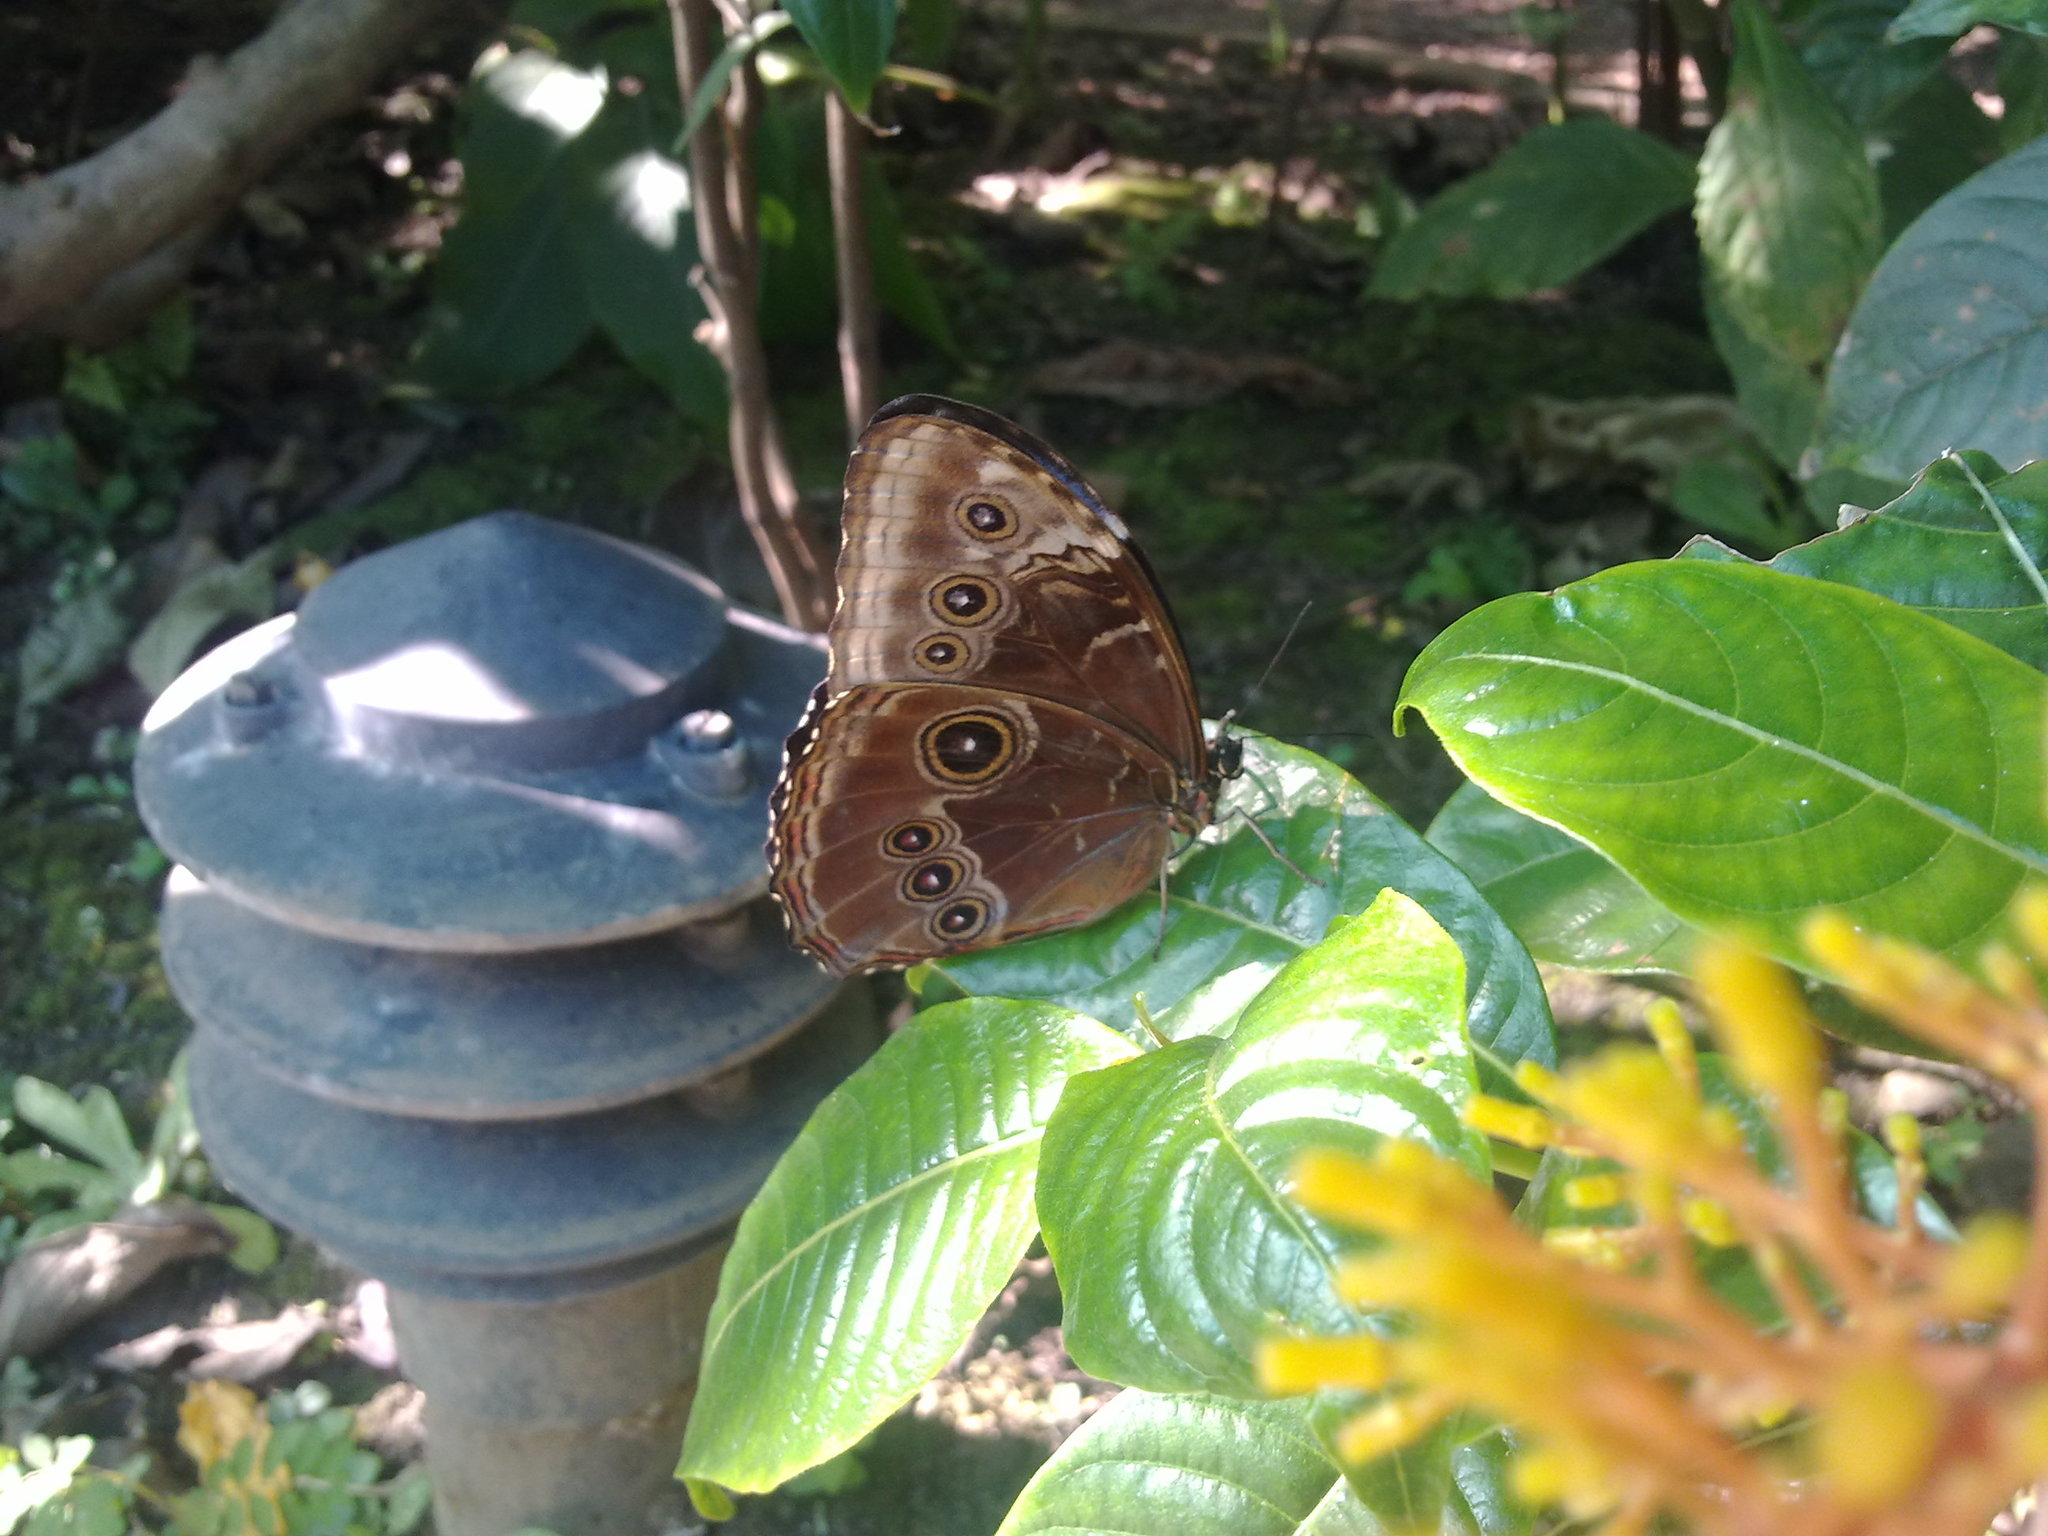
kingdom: Animalia
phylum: Arthropoda
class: Insecta
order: Lepidoptera
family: Nymphalidae
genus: Morpho
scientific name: Morpho helenor
